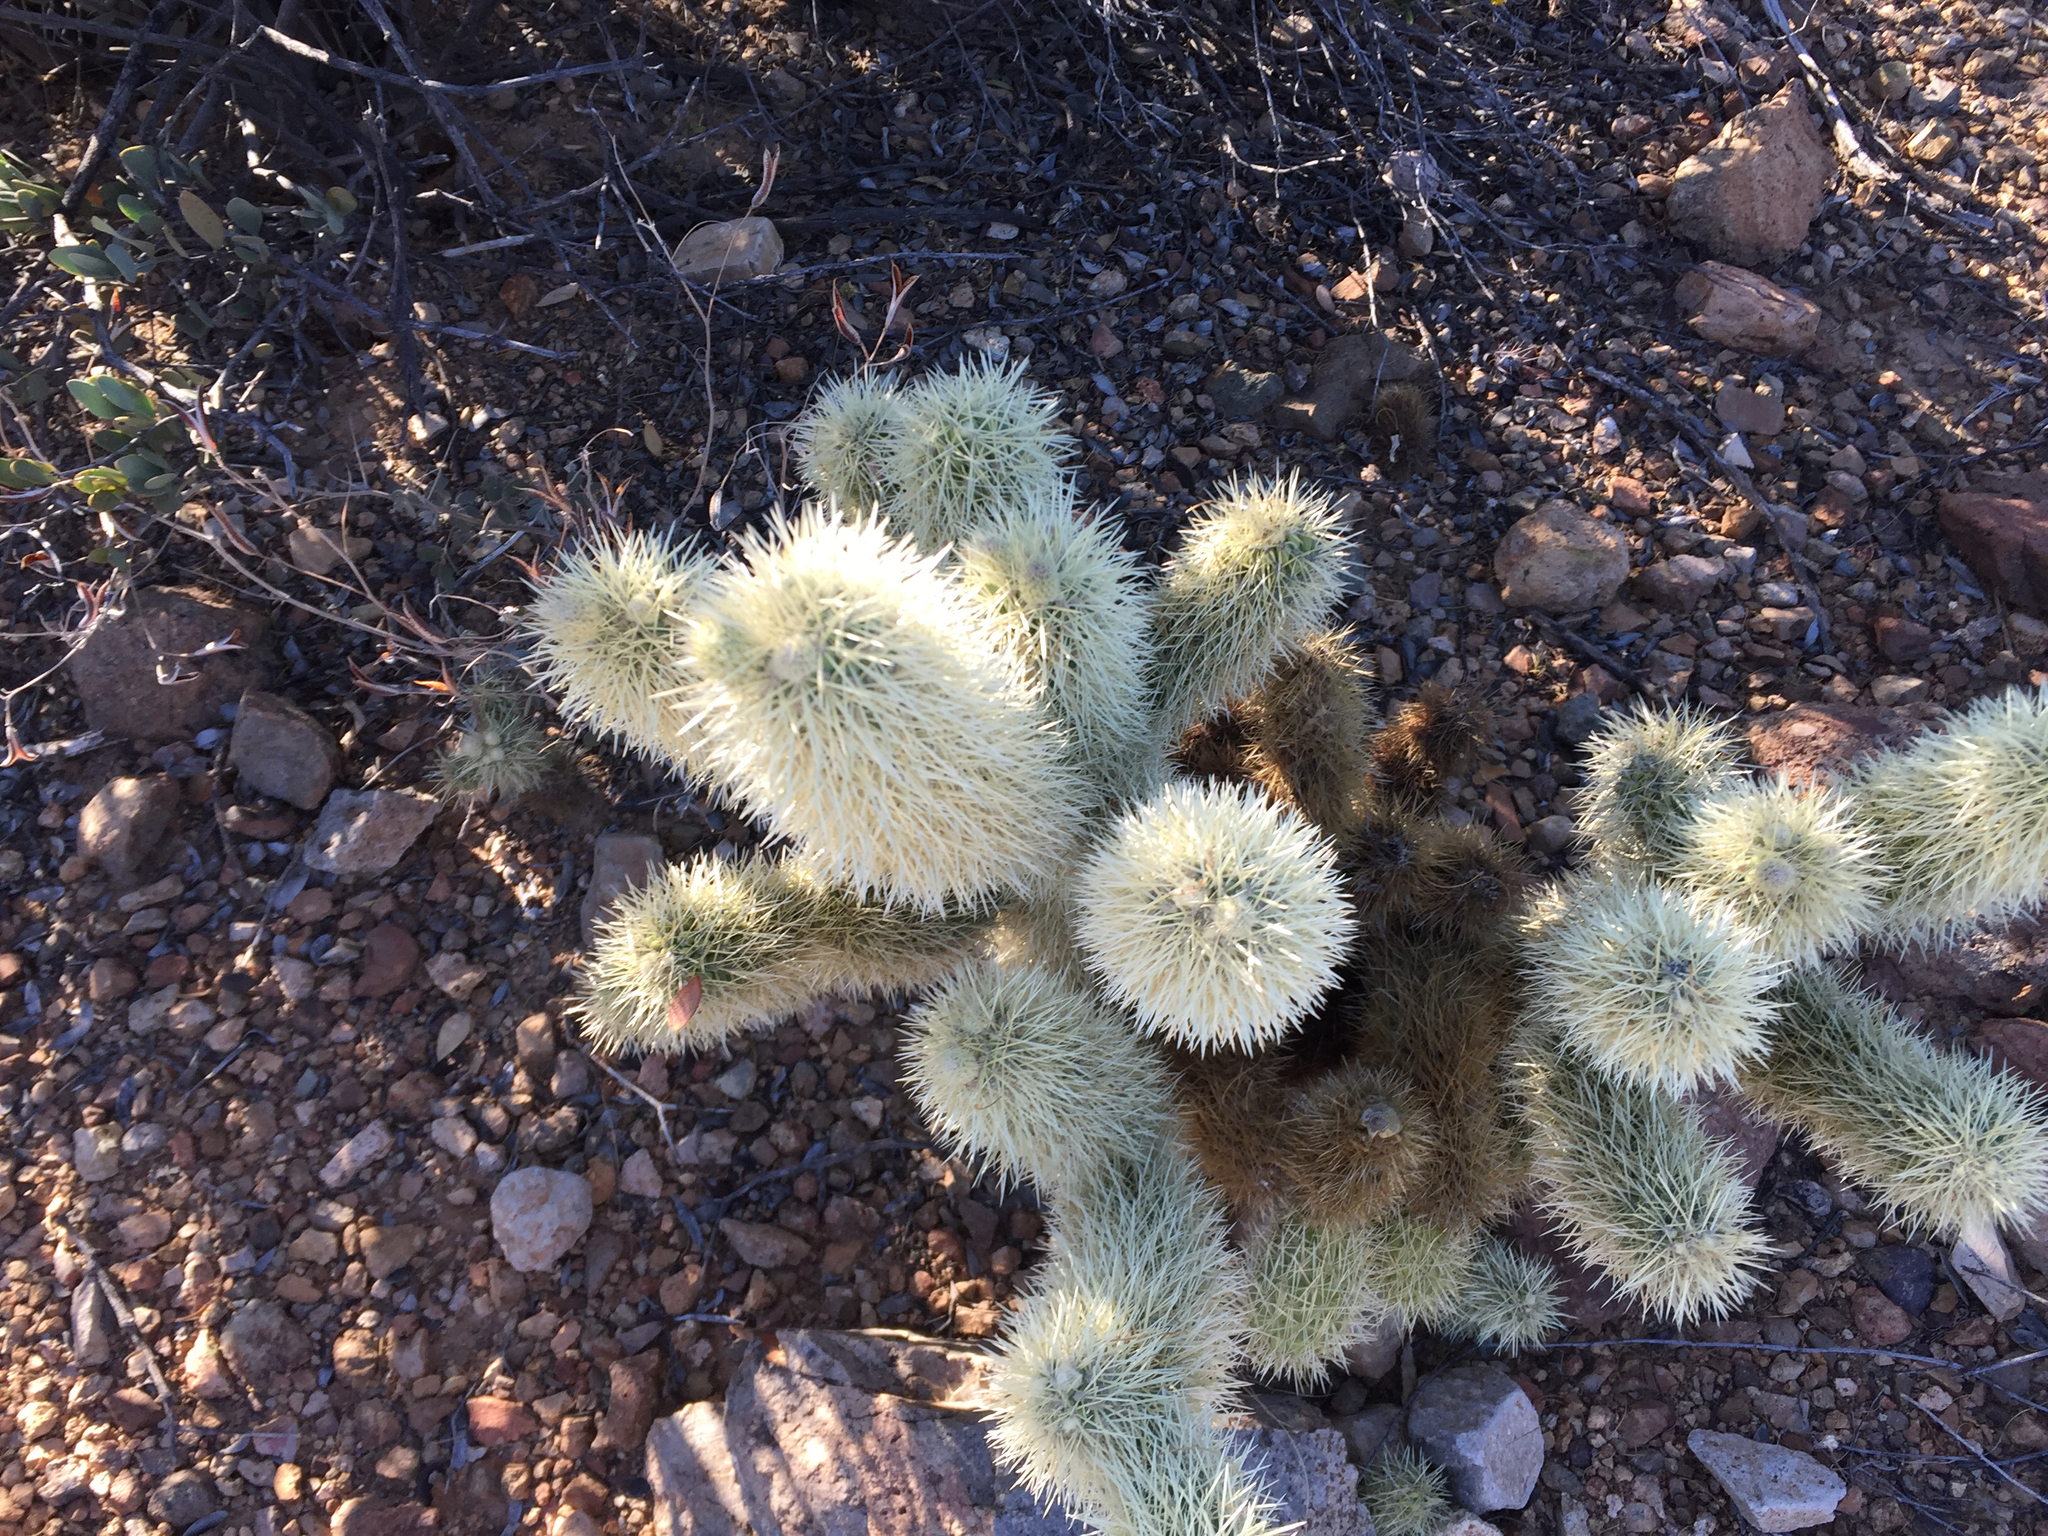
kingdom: Plantae
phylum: Tracheophyta
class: Magnoliopsida
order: Caryophyllales
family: Cactaceae
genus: Cylindropuntia
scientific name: Cylindropuntia fosbergii
